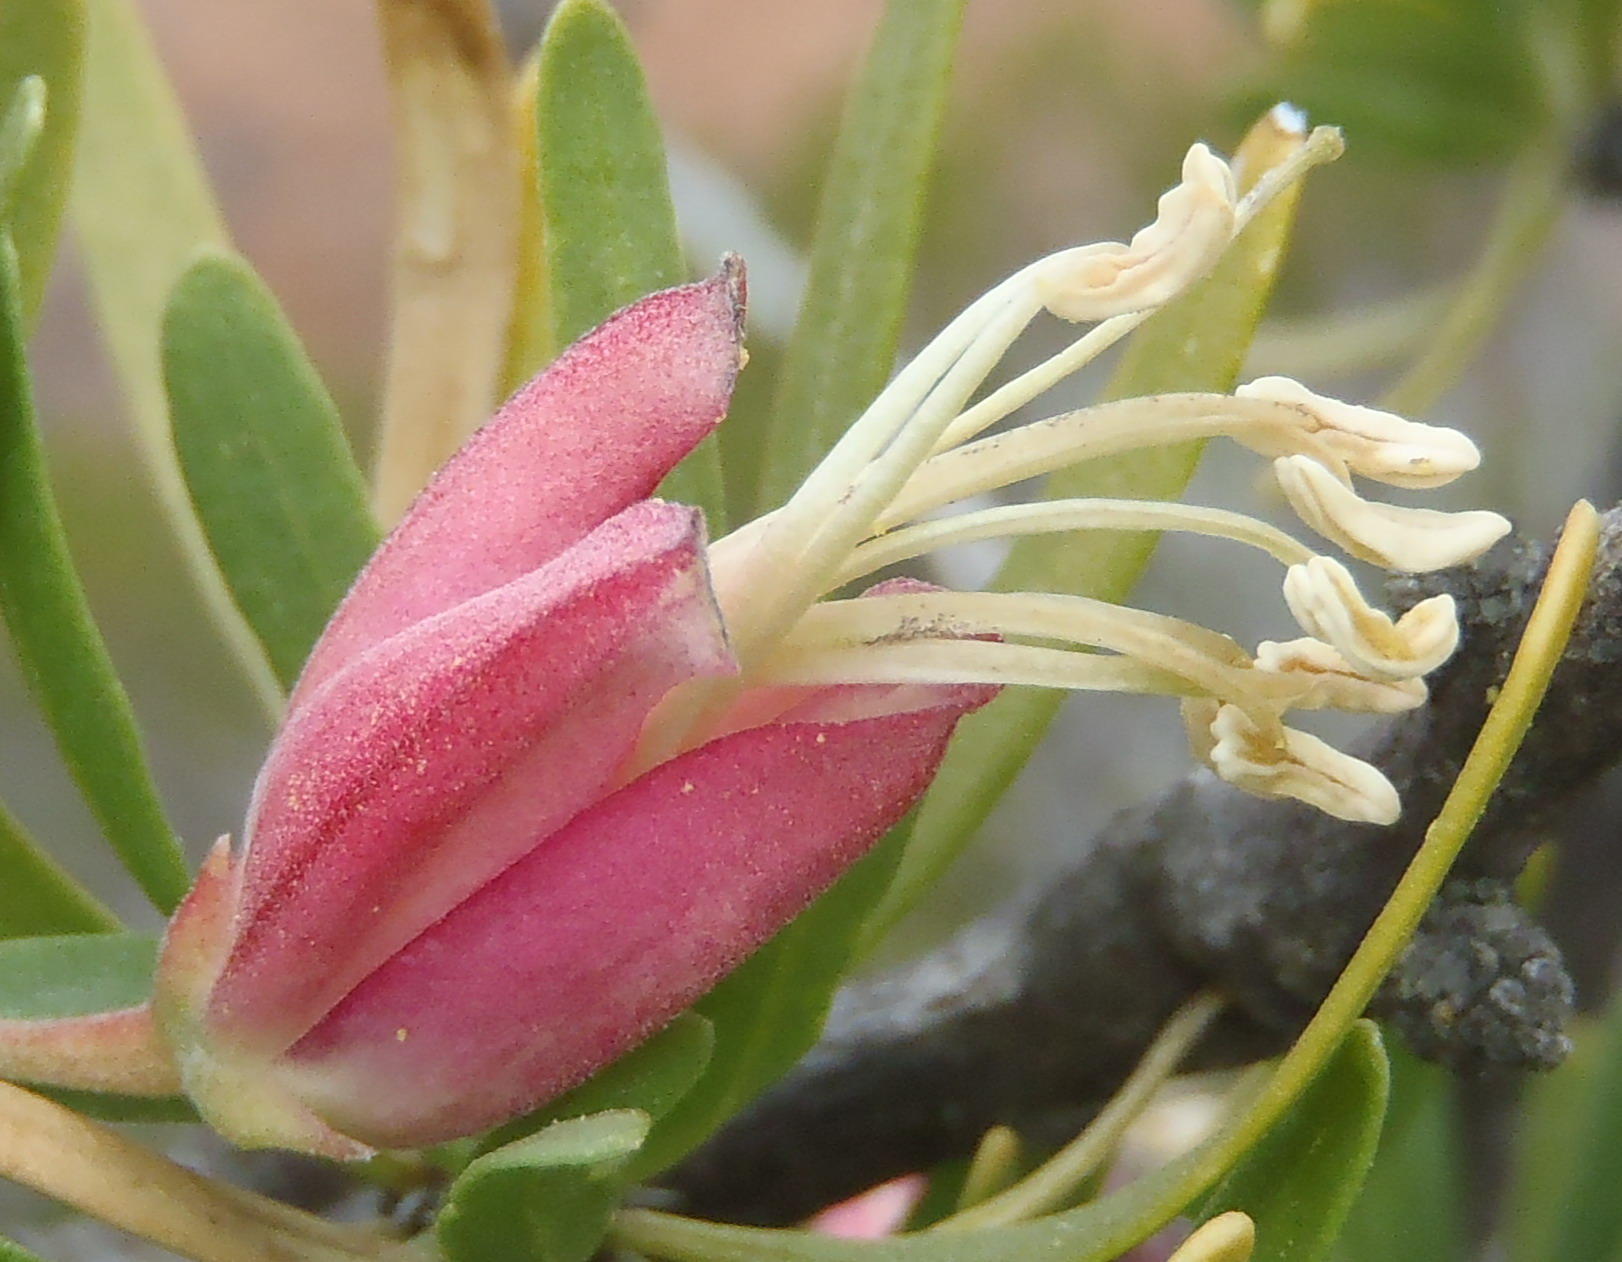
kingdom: Plantae
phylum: Tracheophyta
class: Magnoliopsida
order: Sapindales
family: Meliaceae
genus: Nymania
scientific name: Nymania capensis
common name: Chinese lantern tree
